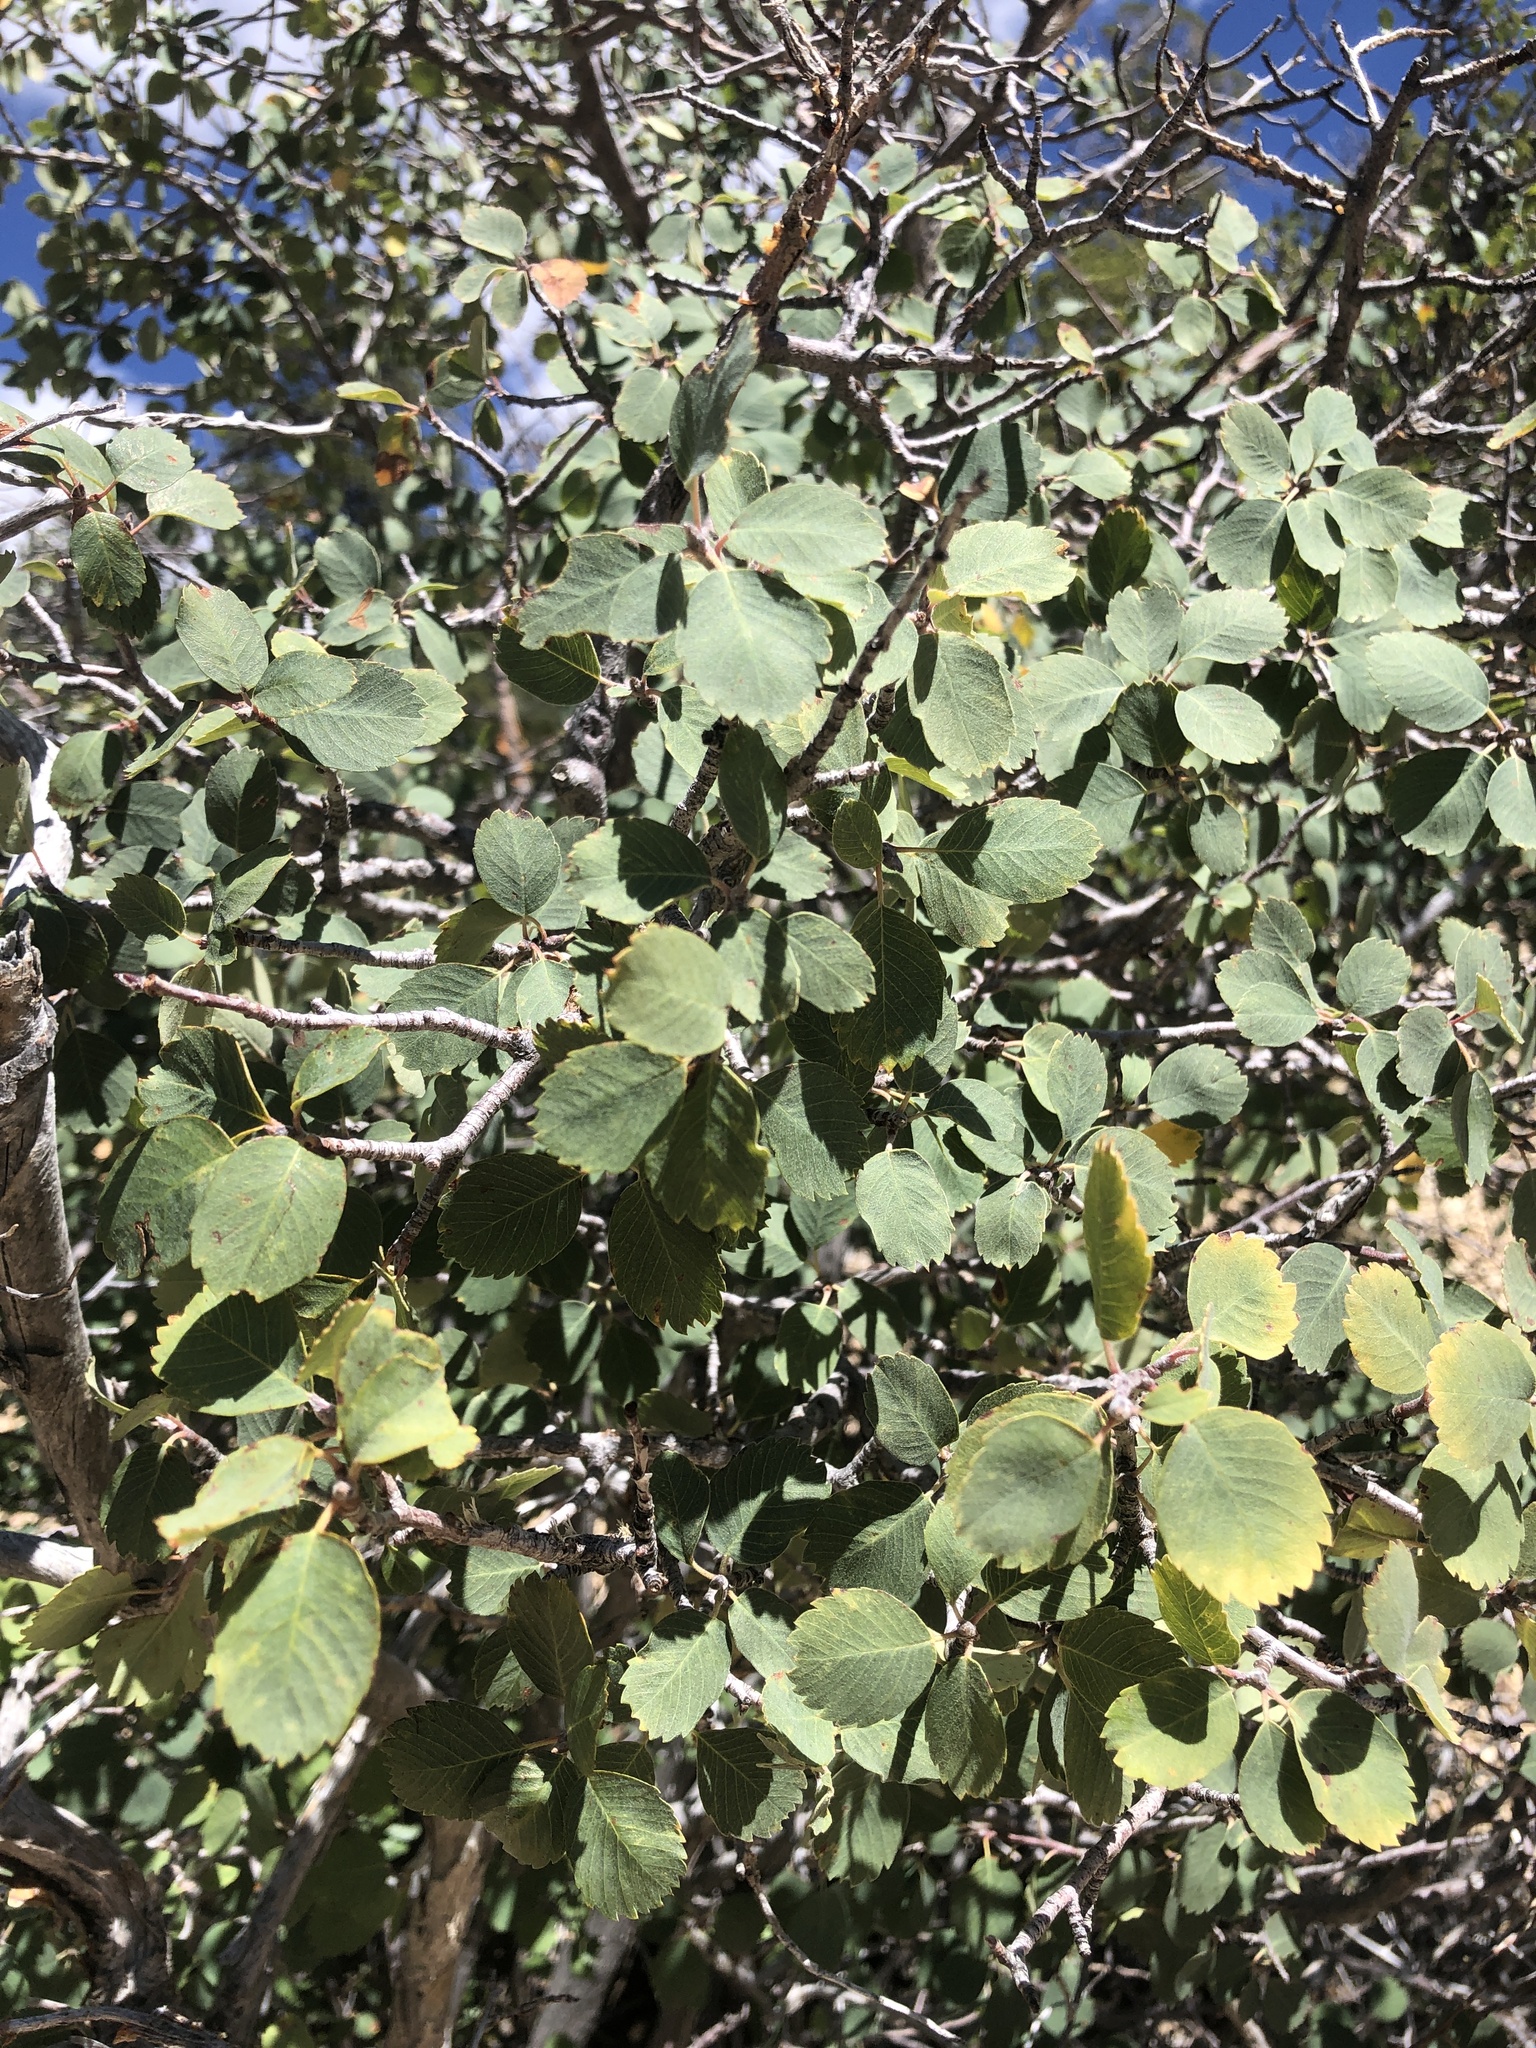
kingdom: Plantae
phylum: Tracheophyta
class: Magnoliopsida
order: Rosales
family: Rosaceae
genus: Amelanchier
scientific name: Amelanchier utahensis
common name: Utah serviceberry
